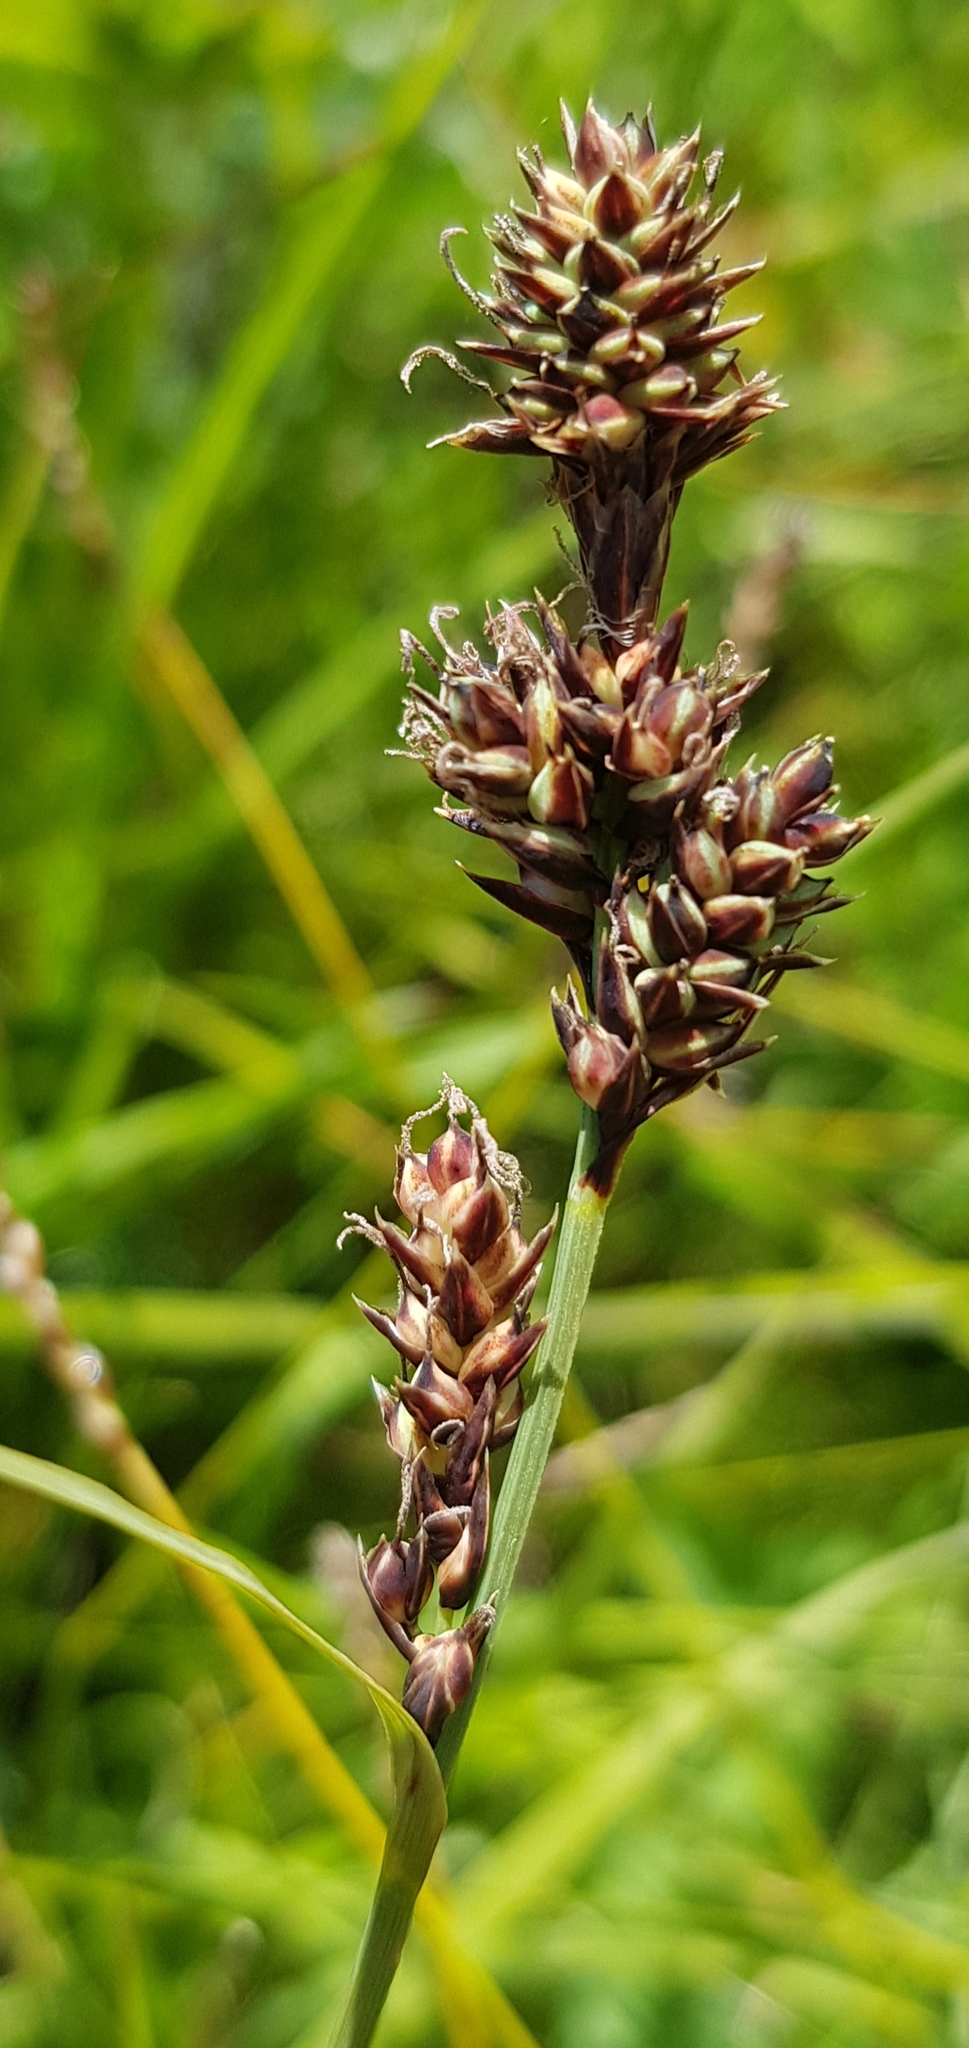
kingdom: Plantae
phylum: Tracheophyta
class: Liliopsida
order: Poales
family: Cyperaceae
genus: Carex
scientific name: Carex diandra
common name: Lesser tussock-sedge
